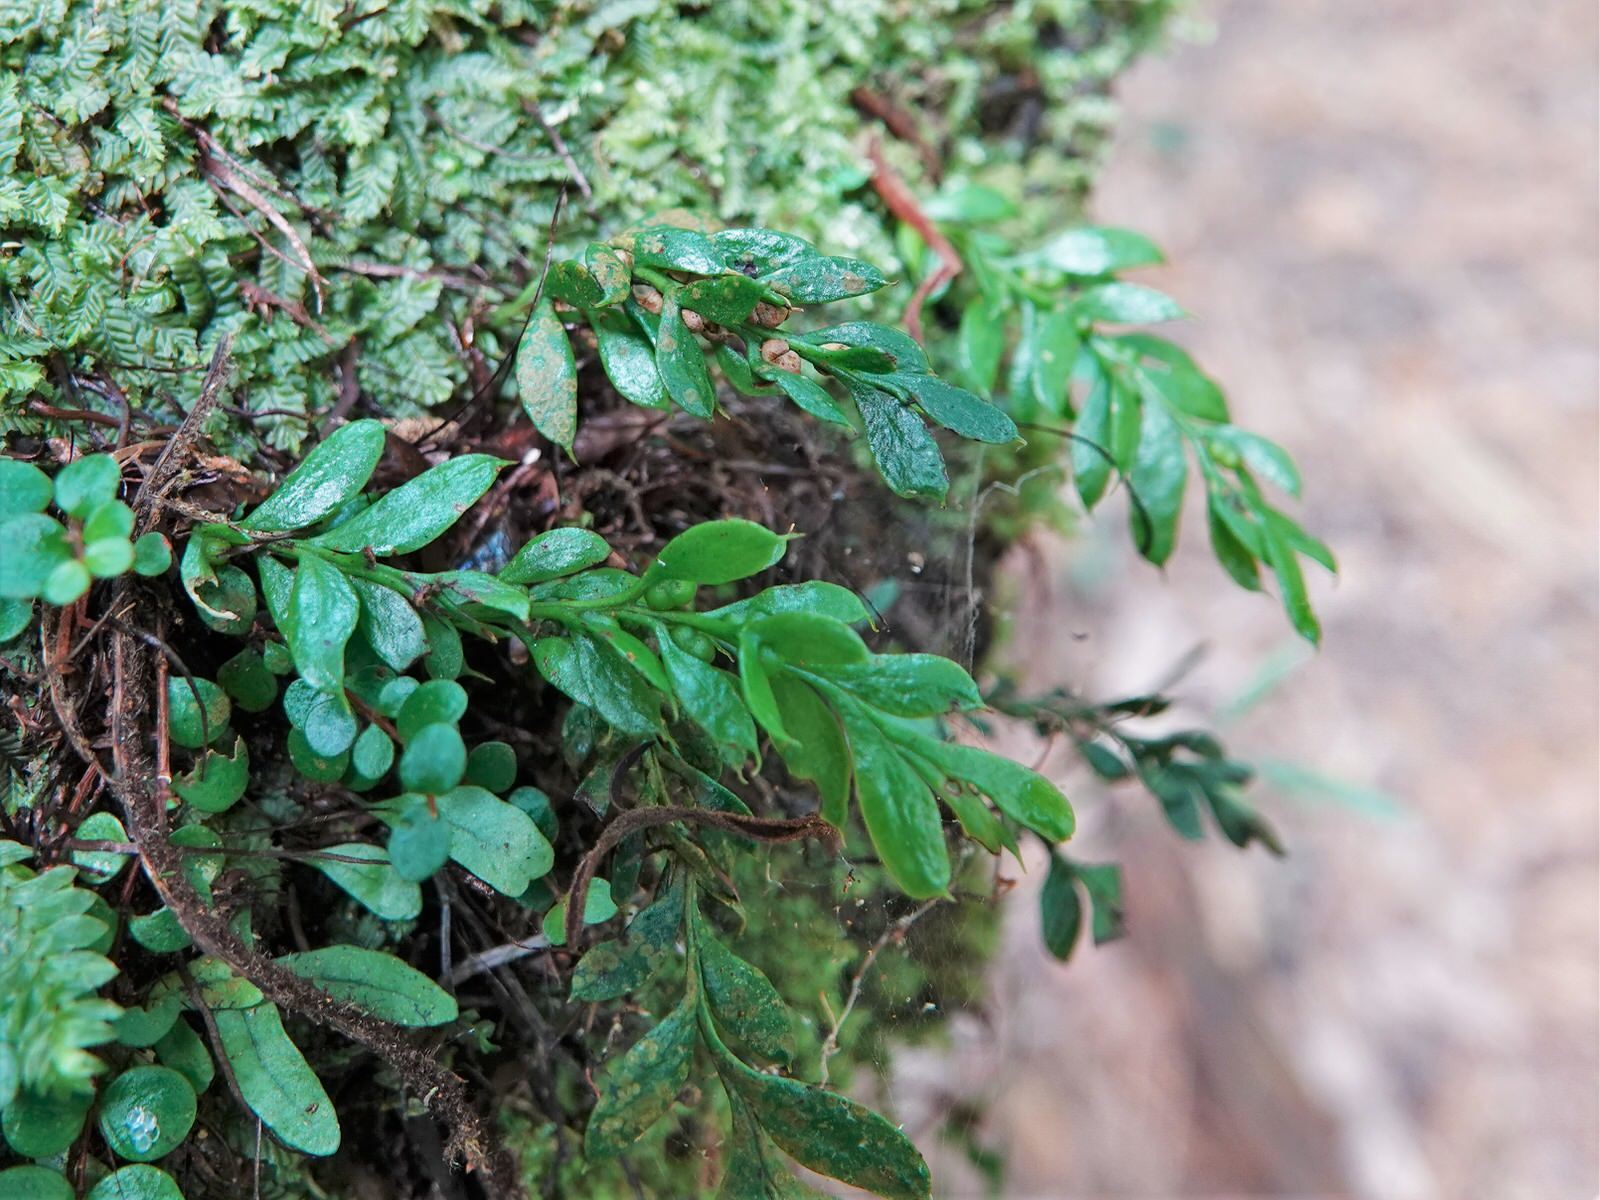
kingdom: Plantae
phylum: Tracheophyta
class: Polypodiopsida
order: Psilotales
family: Psilotaceae
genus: Tmesipteris
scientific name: Tmesipteris lanceolata
